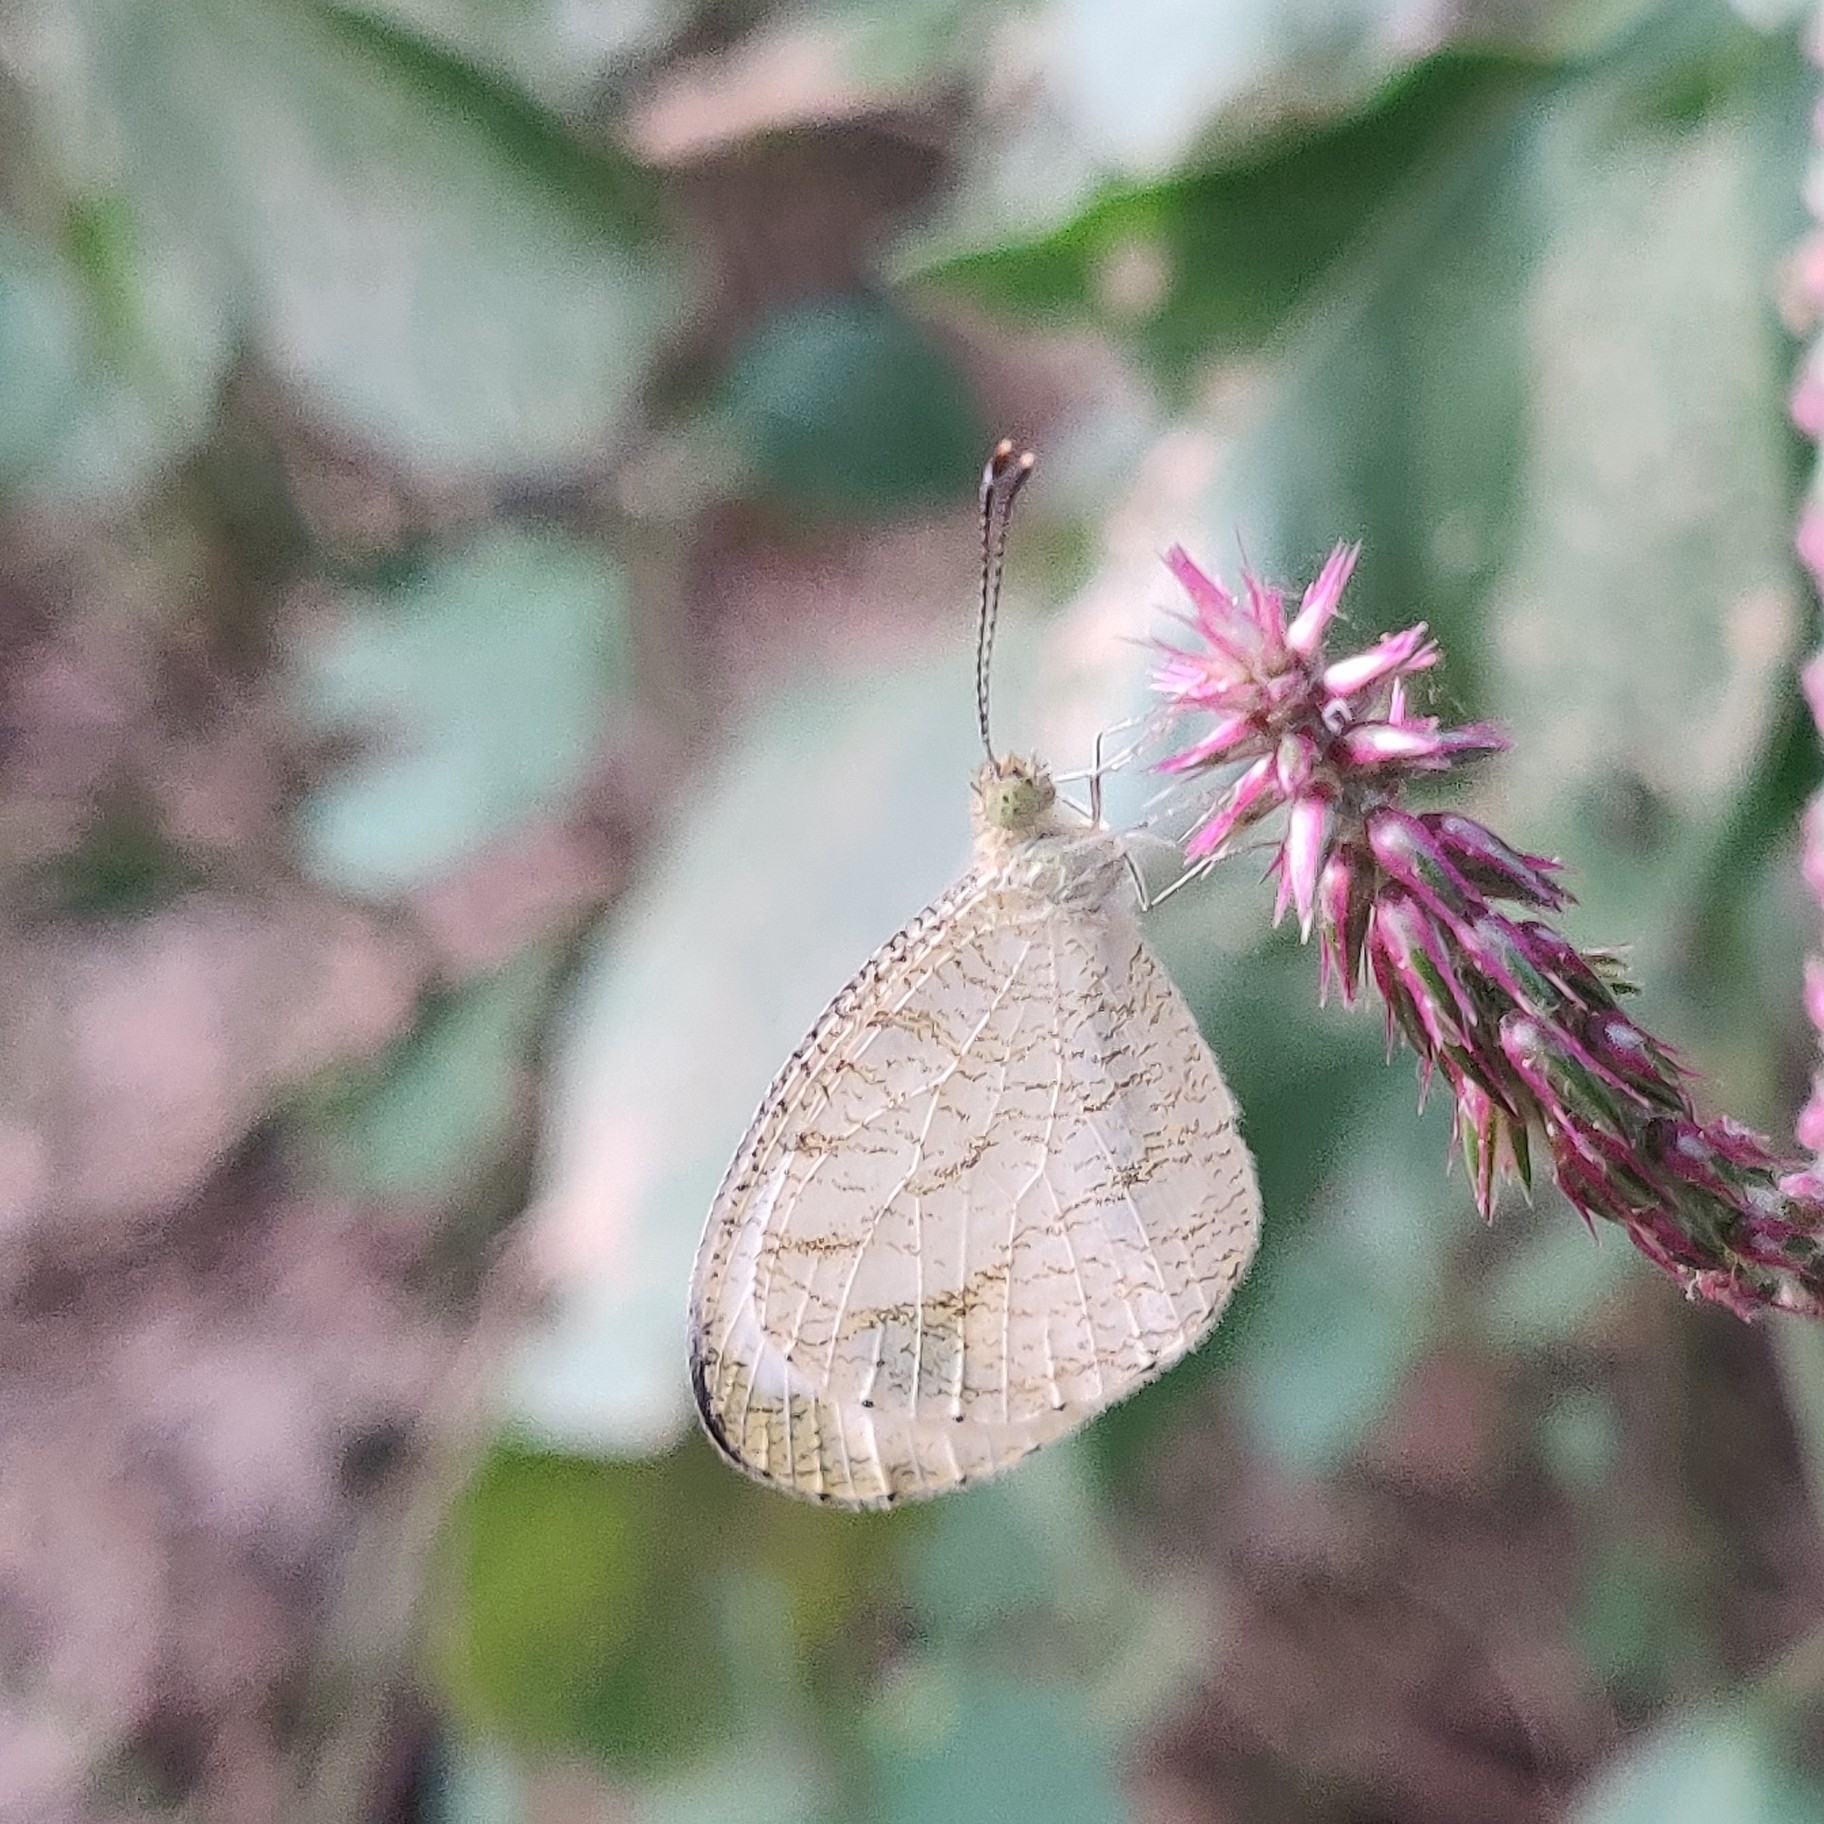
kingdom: Animalia
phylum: Arthropoda
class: Insecta
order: Lepidoptera
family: Pieridae
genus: Leptosia
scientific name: Leptosia nina
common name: Psyche
